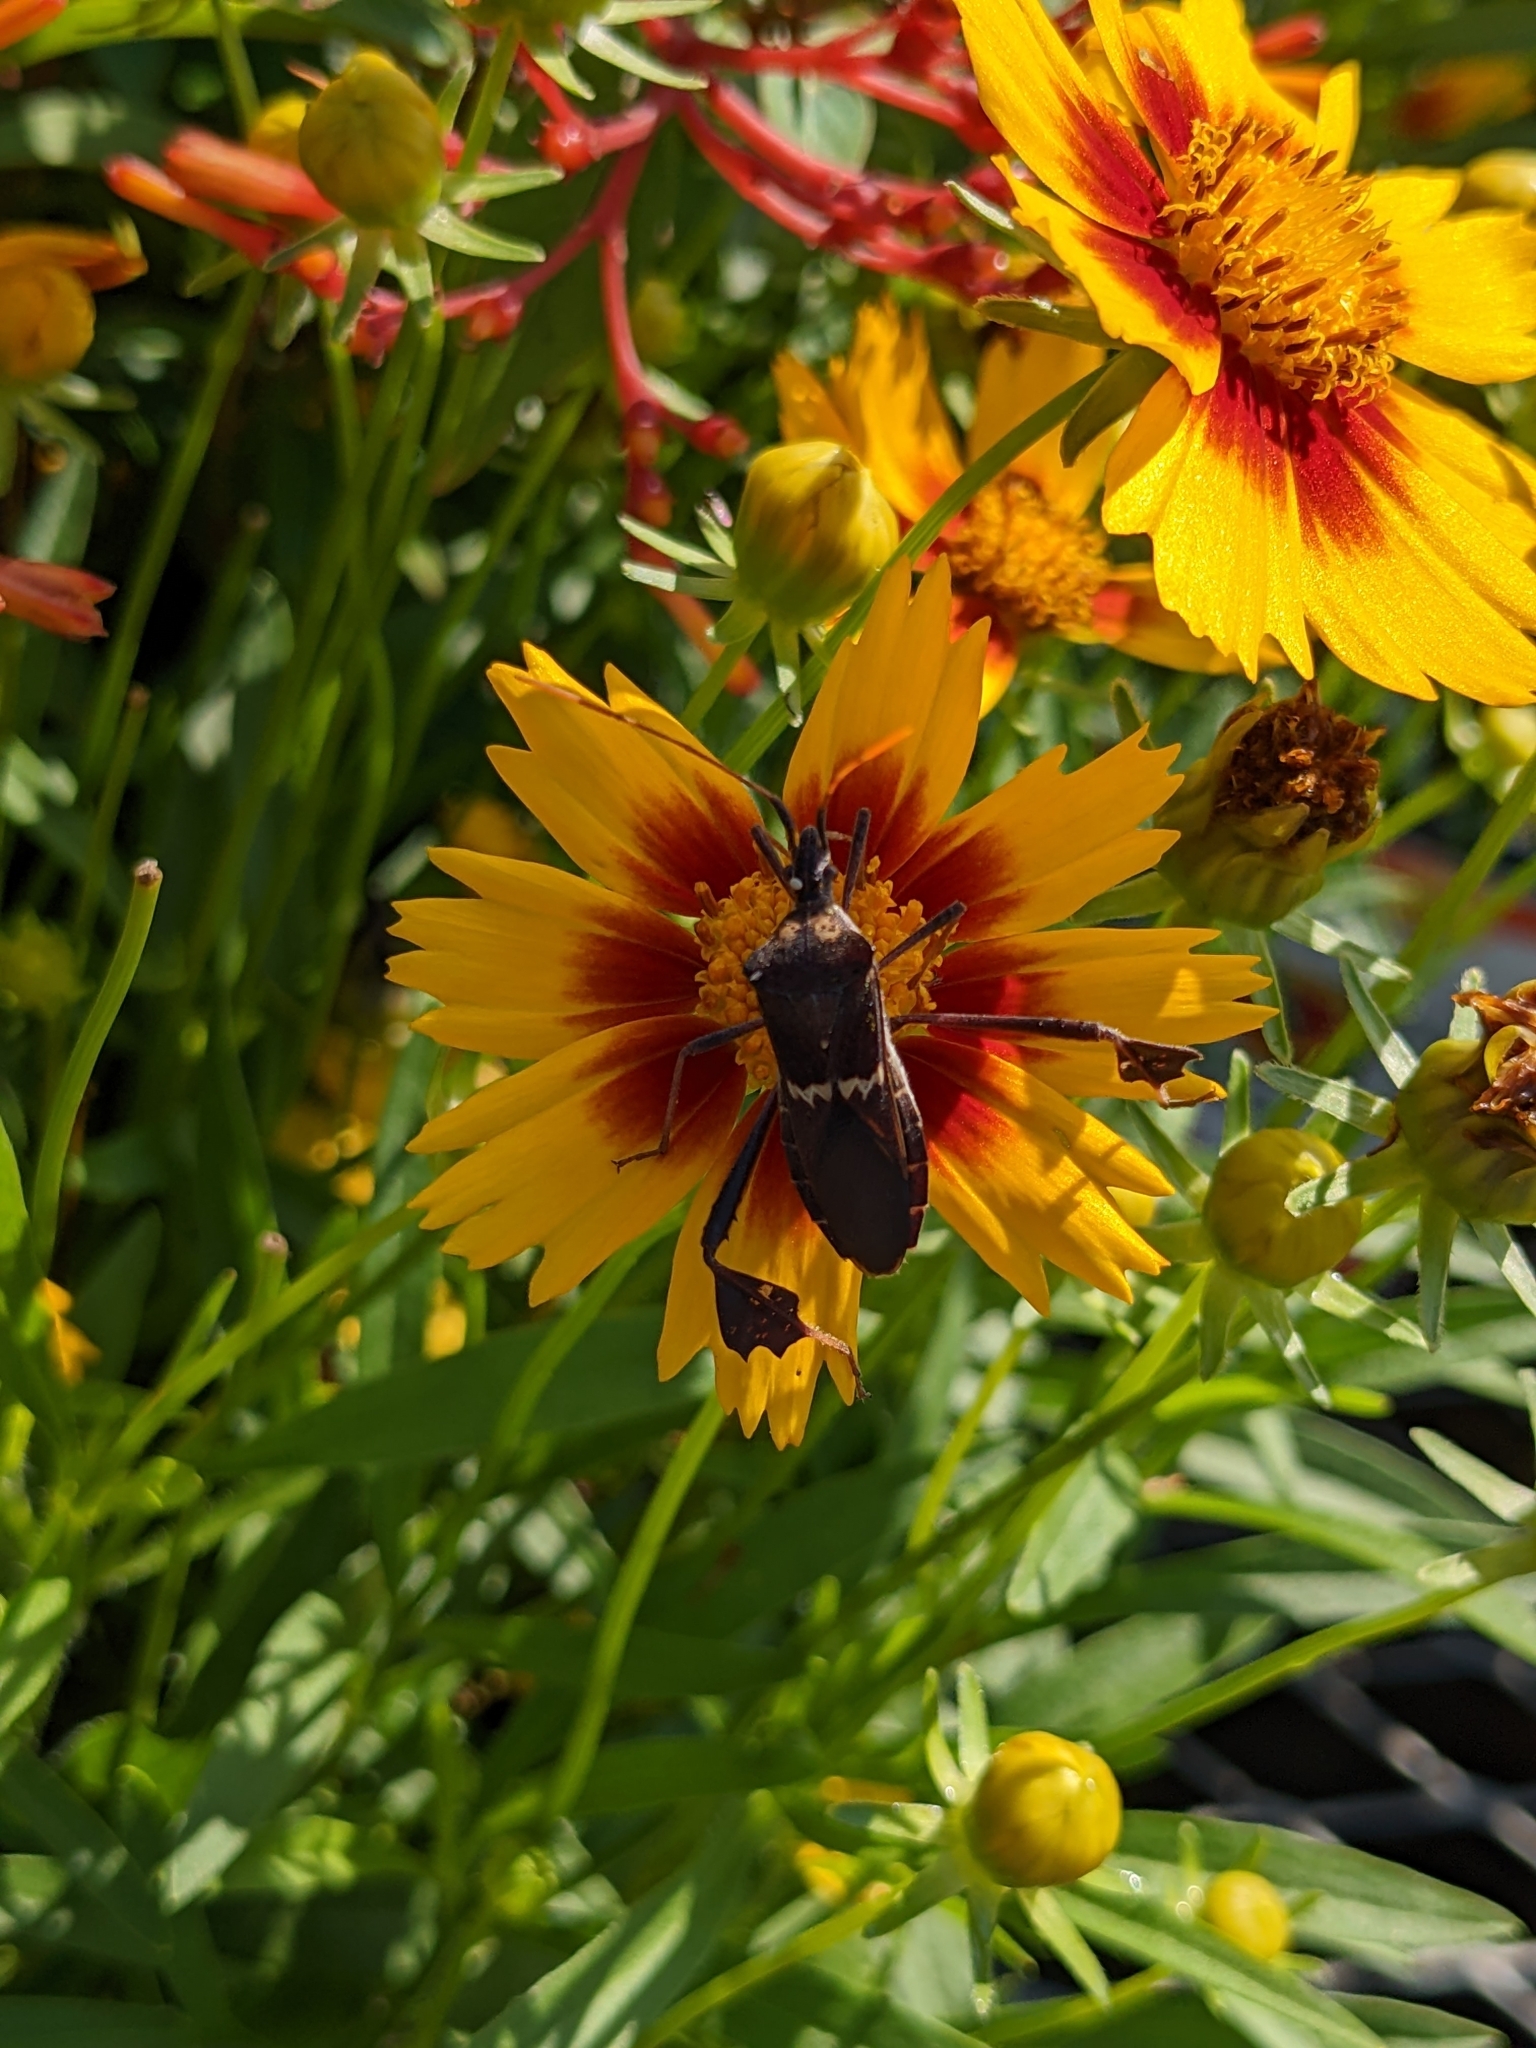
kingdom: Animalia
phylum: Arthropoda
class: Insecta
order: Hemiptera
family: Coreidae
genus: Leptoglossus
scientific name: Leptoglossus zonatus
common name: Large-legged bug
